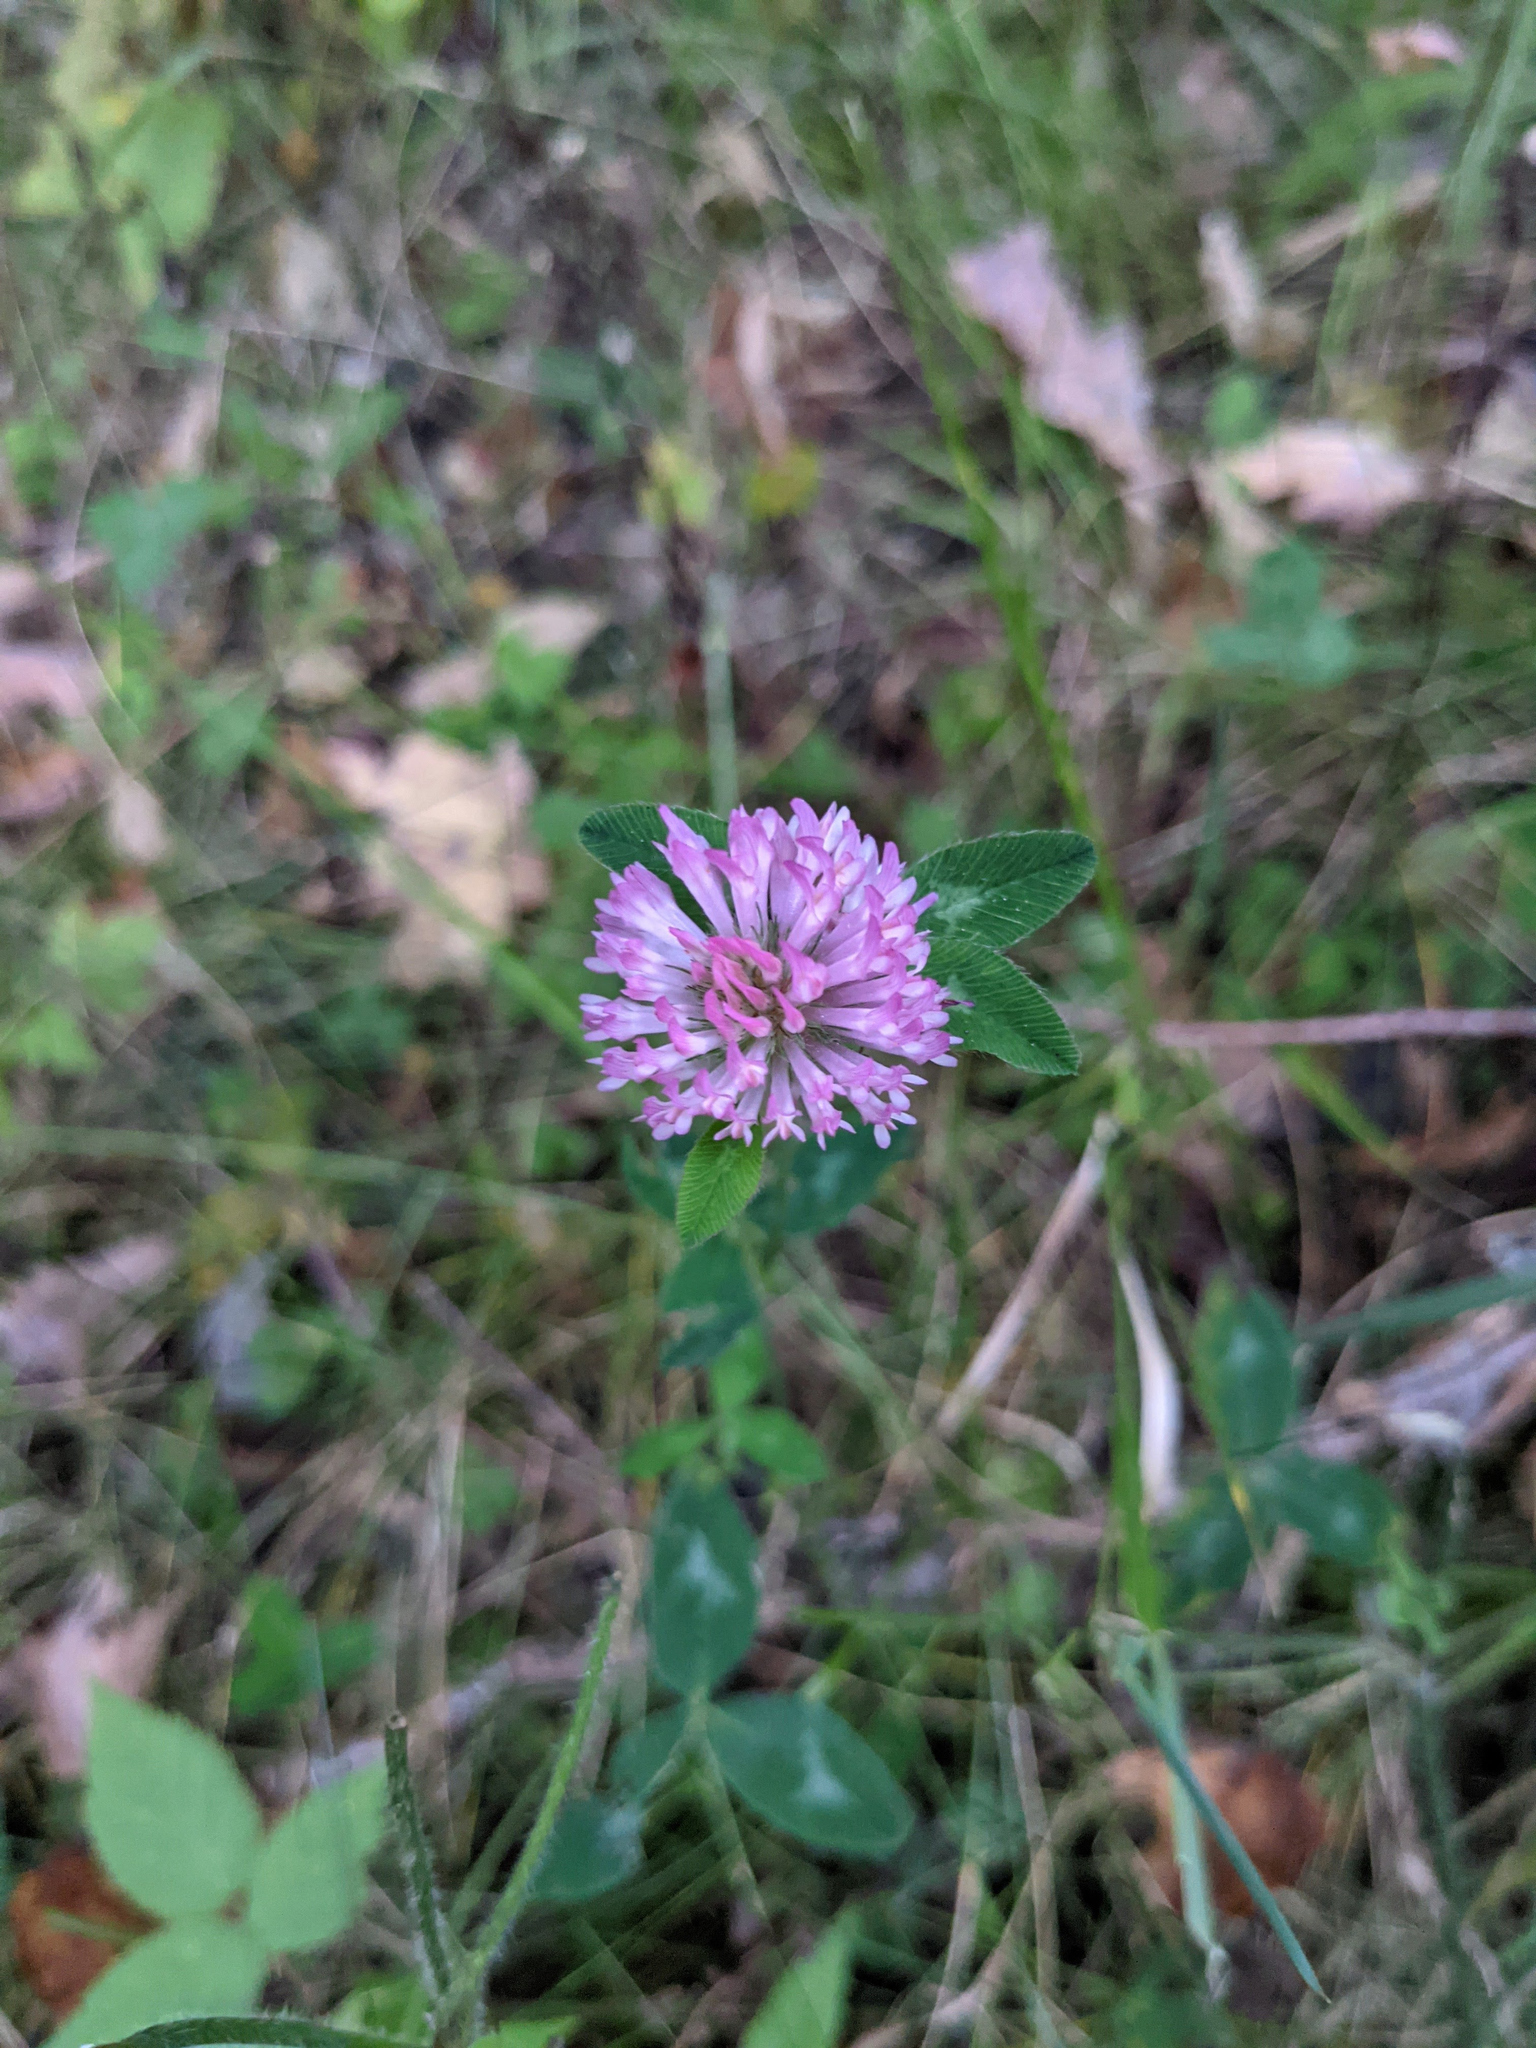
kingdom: Plantae
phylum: Tracheophyta
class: Magnoliopsida
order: Fabales
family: Fabaceae
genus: Trifolium
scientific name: Trifolium pratense
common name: Red clover
